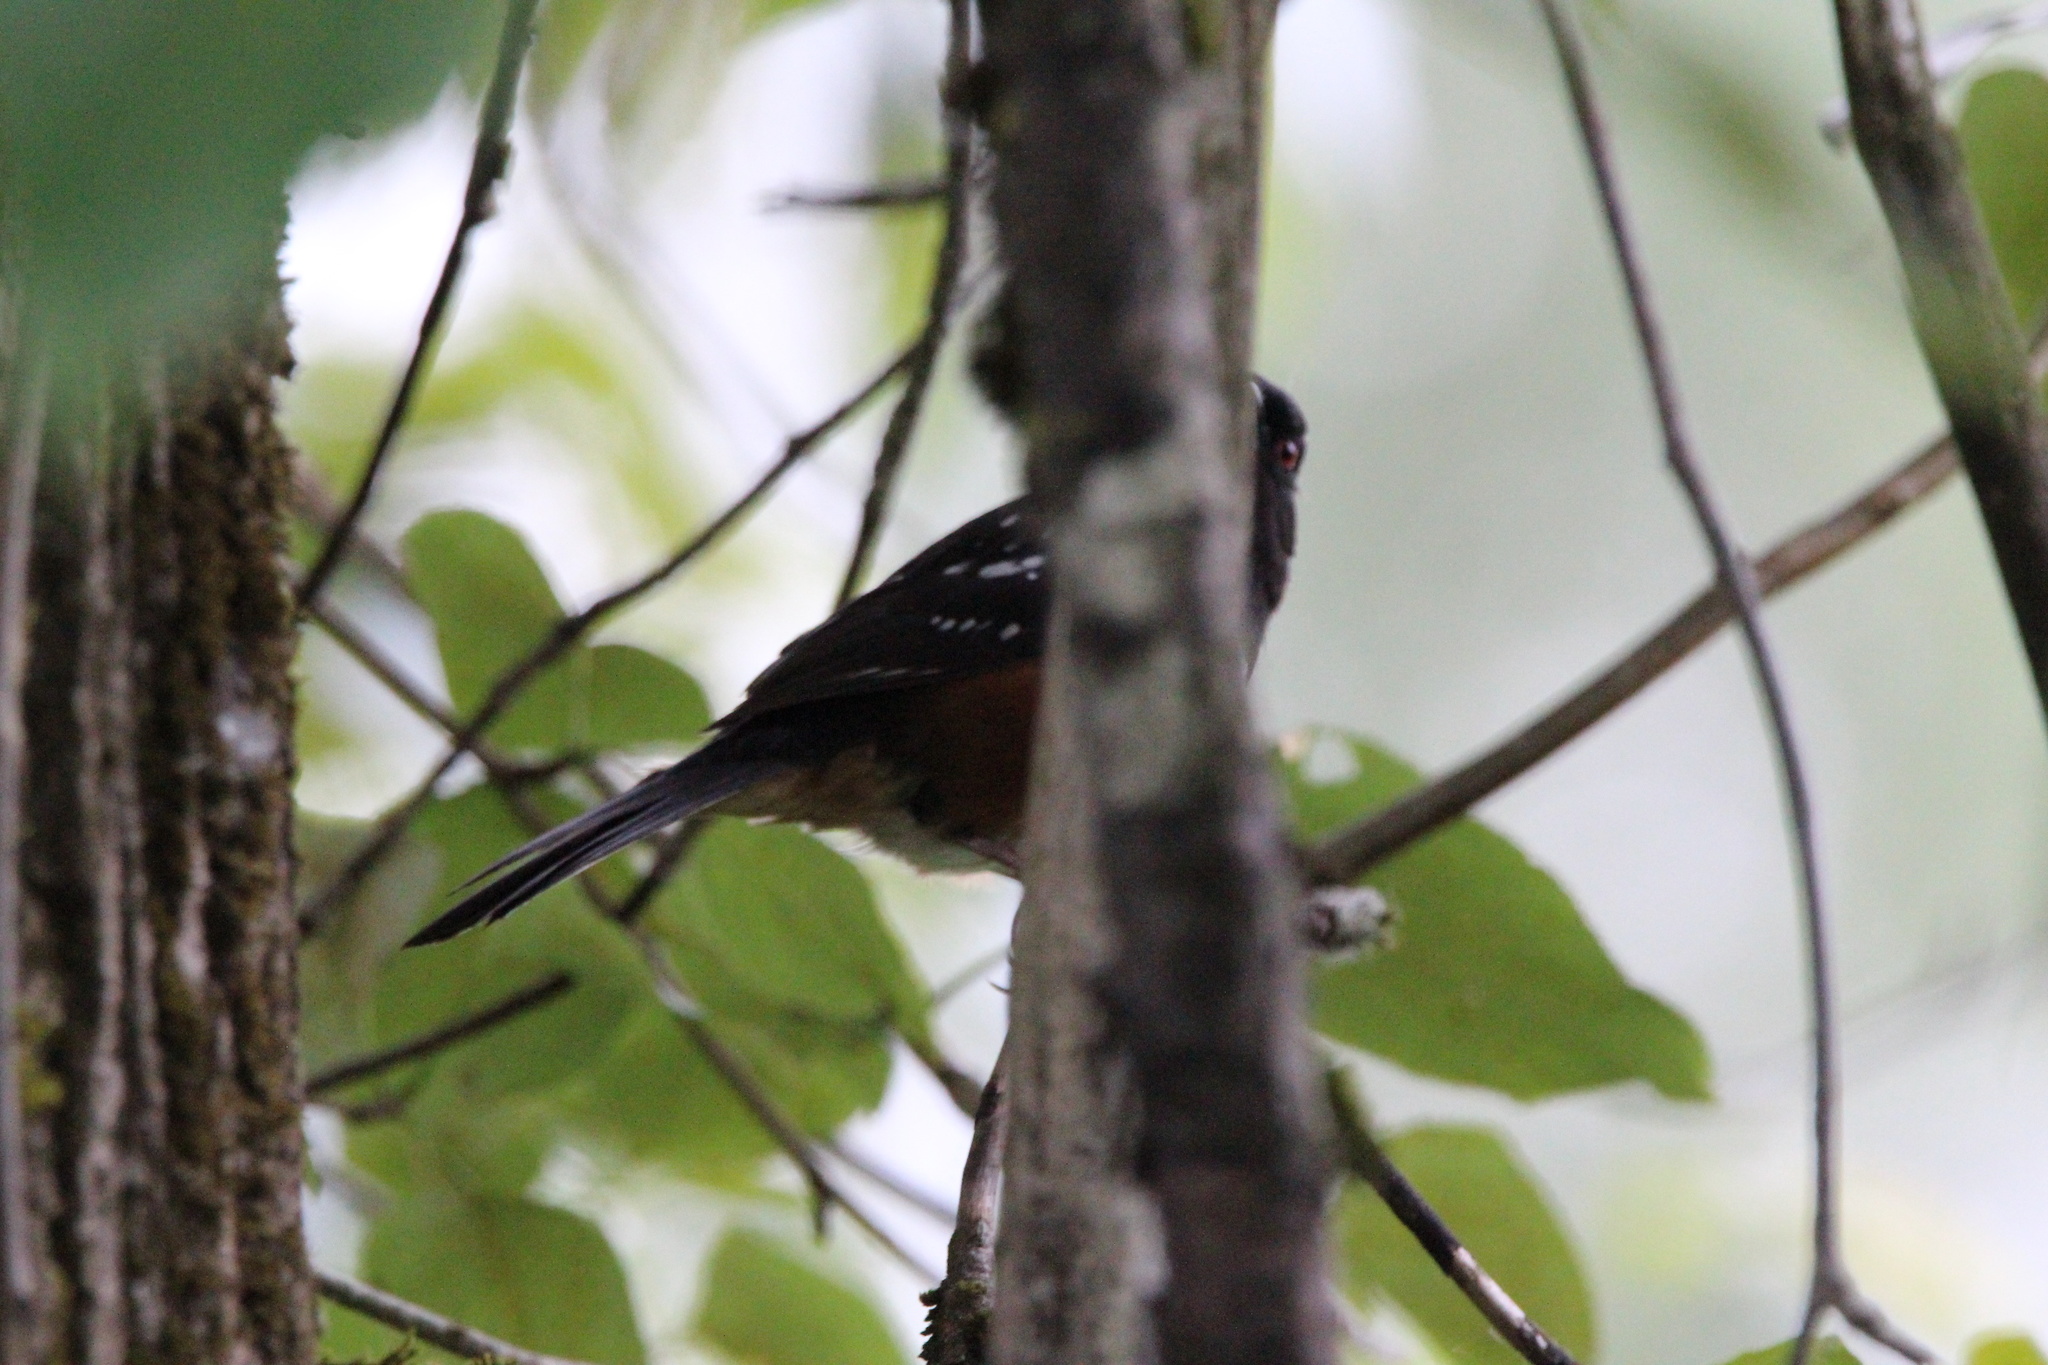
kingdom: Animalia
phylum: Chordata
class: Aves
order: Passeriformes
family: Passerellidae
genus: Pipilo
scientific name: Pipilo maculatus
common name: Spotted towhee
